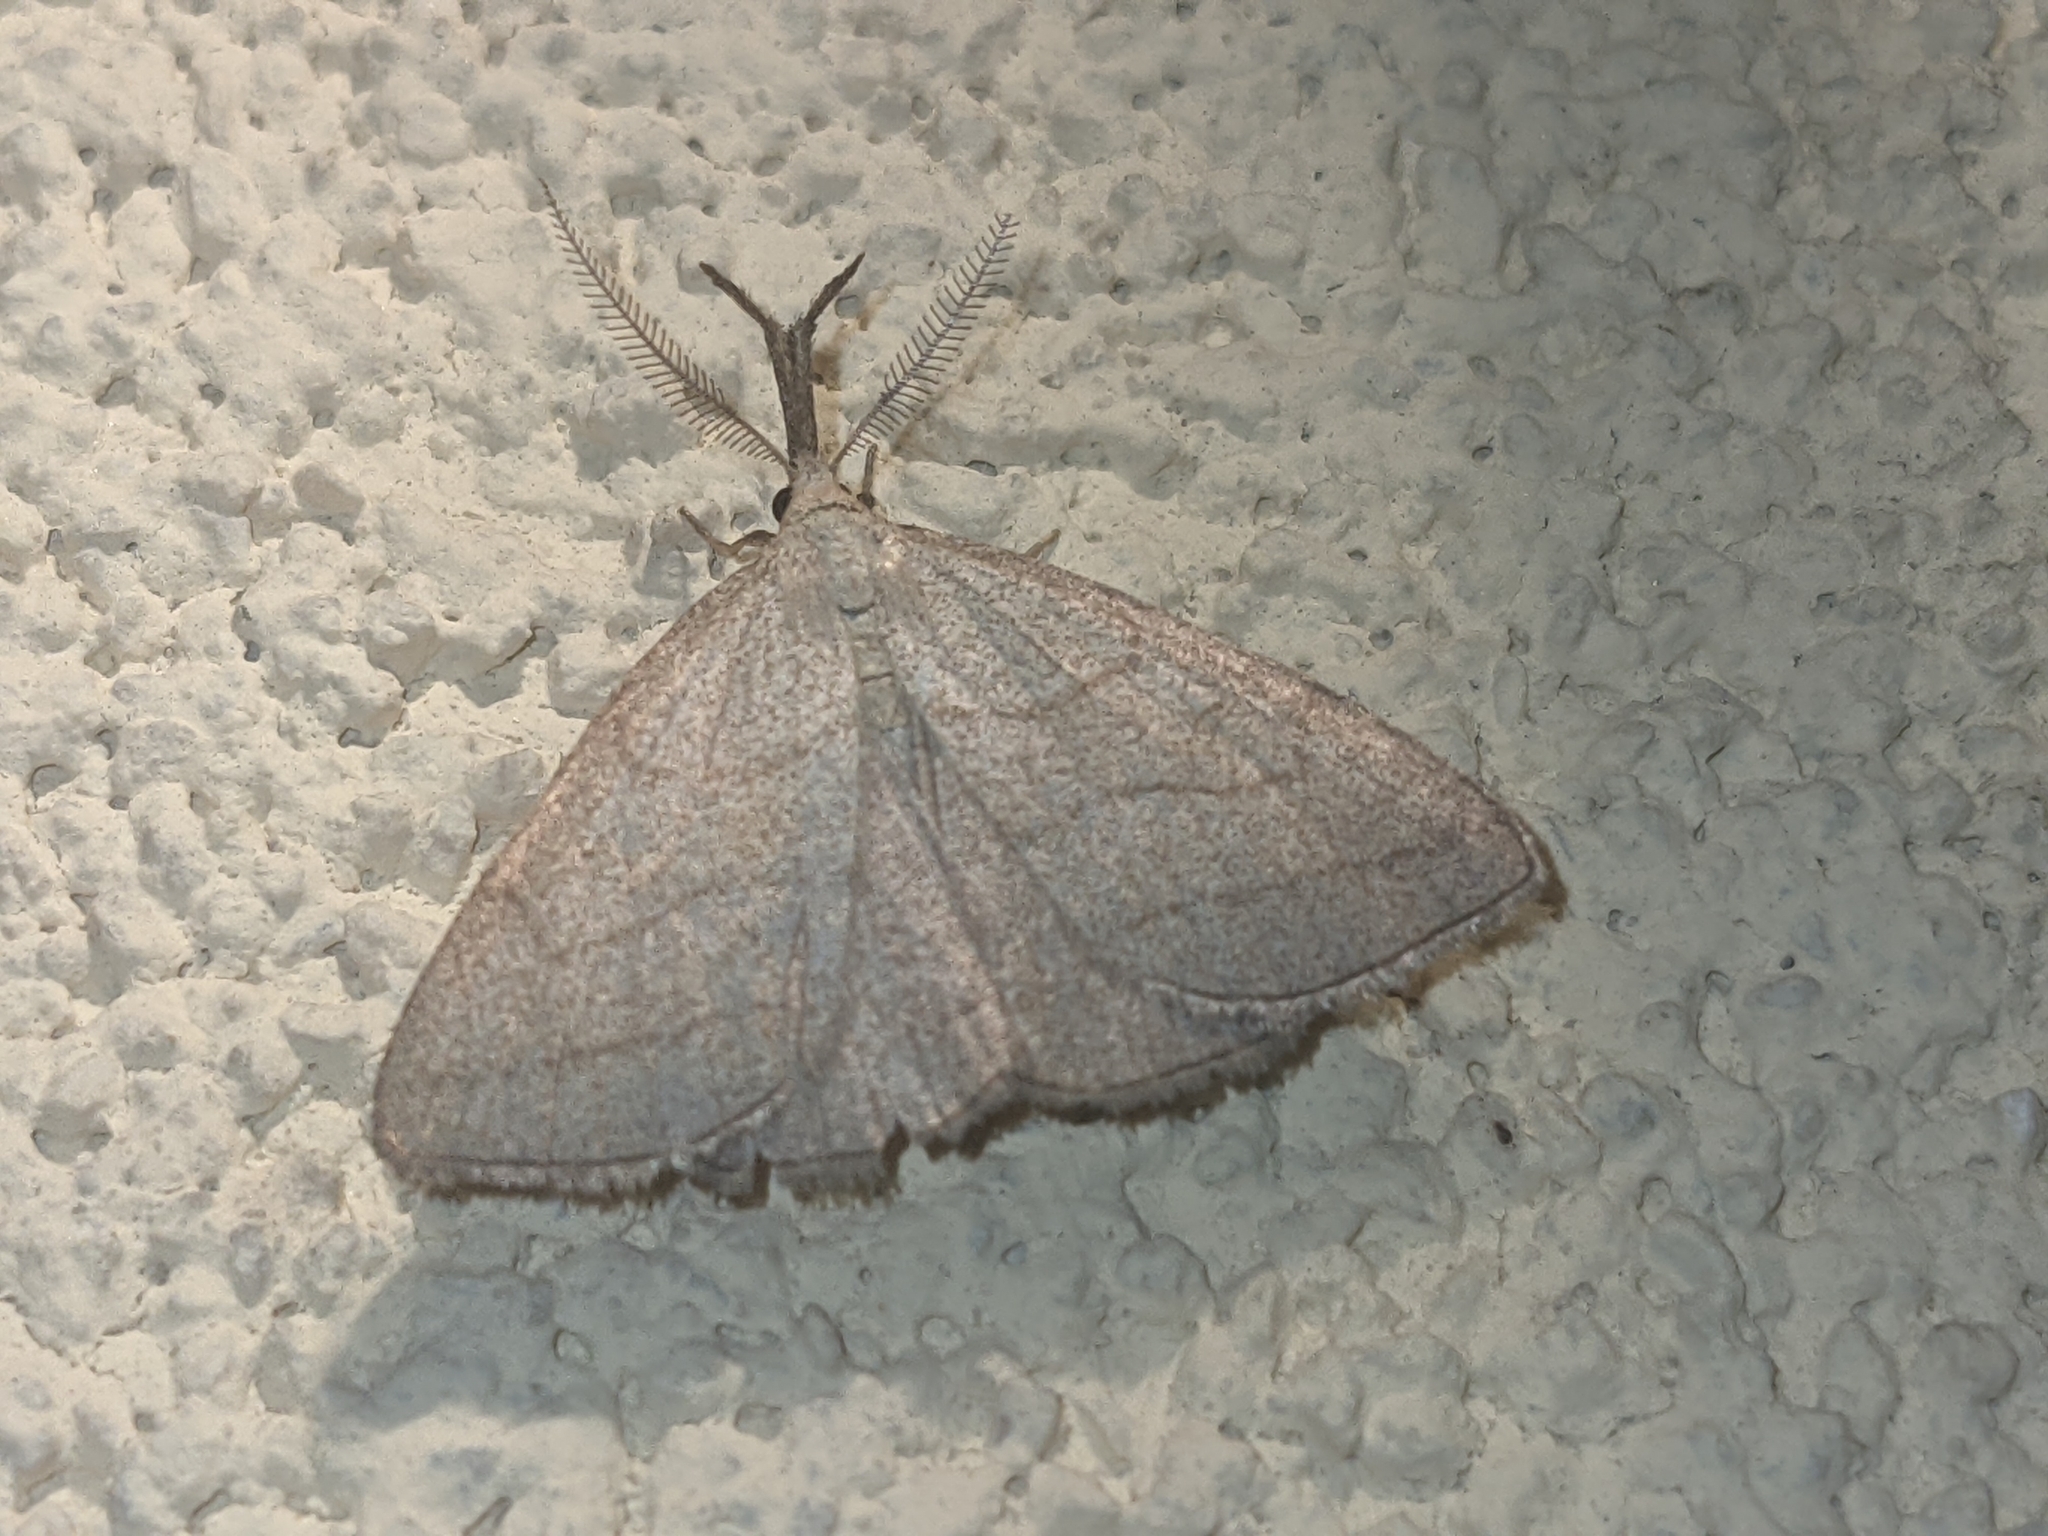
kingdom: Animalia
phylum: Arthropoda
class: Insecta
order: Lepidoptera
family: Erebidae
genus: Polypogon
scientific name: Polypogon tentacularia
